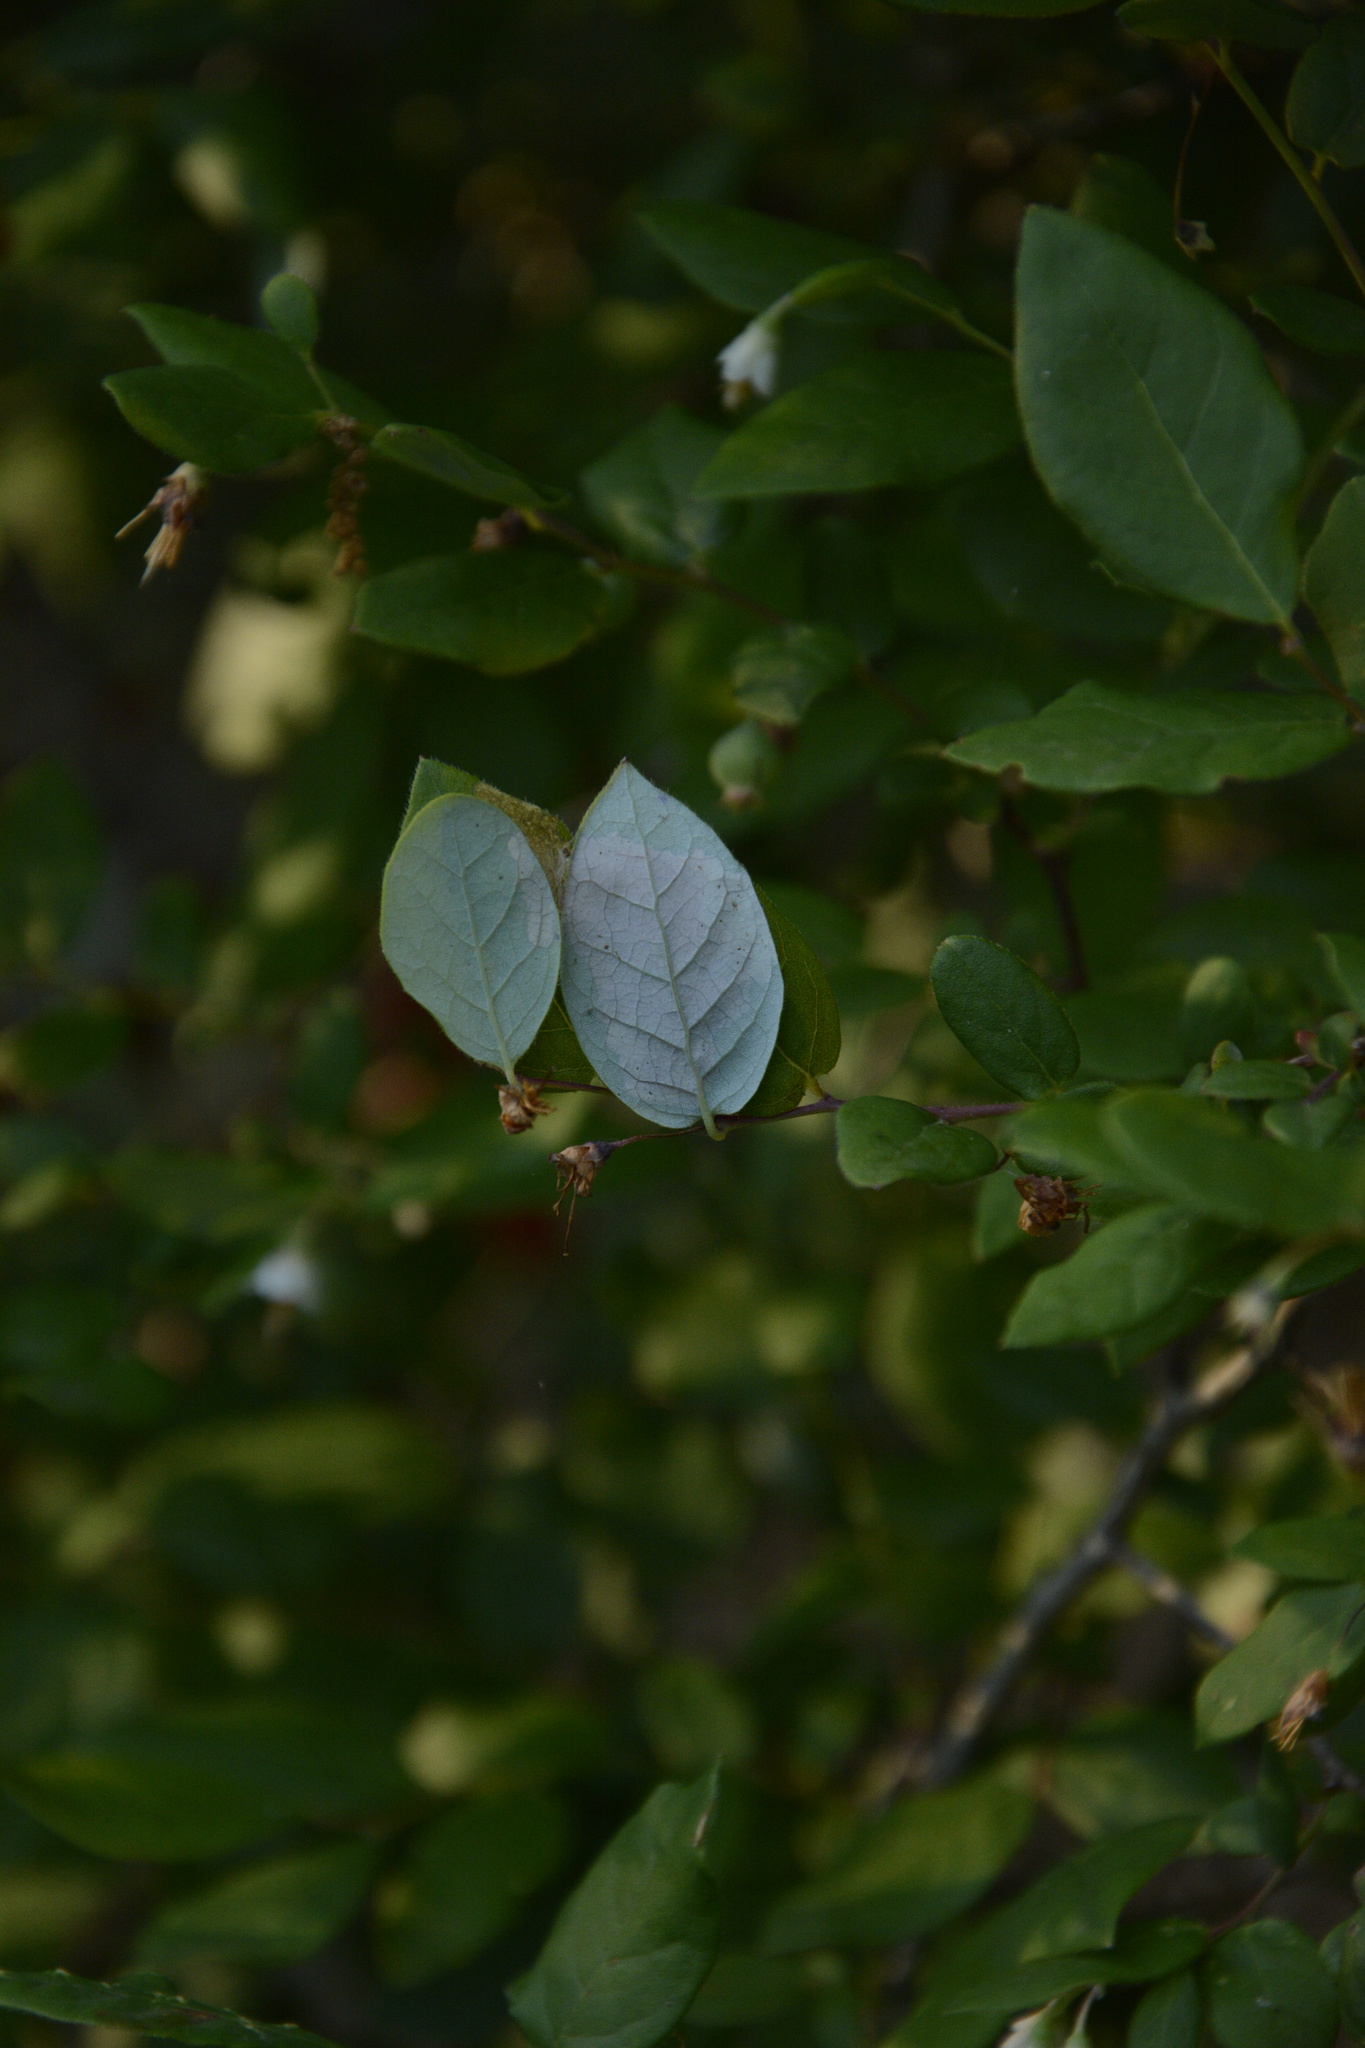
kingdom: Plantae
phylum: Tracheophyta
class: Magnoliopsida
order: Ericales
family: Ericaceae
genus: Vaccinium
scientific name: Vaccinium stamineum
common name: Deerberry
